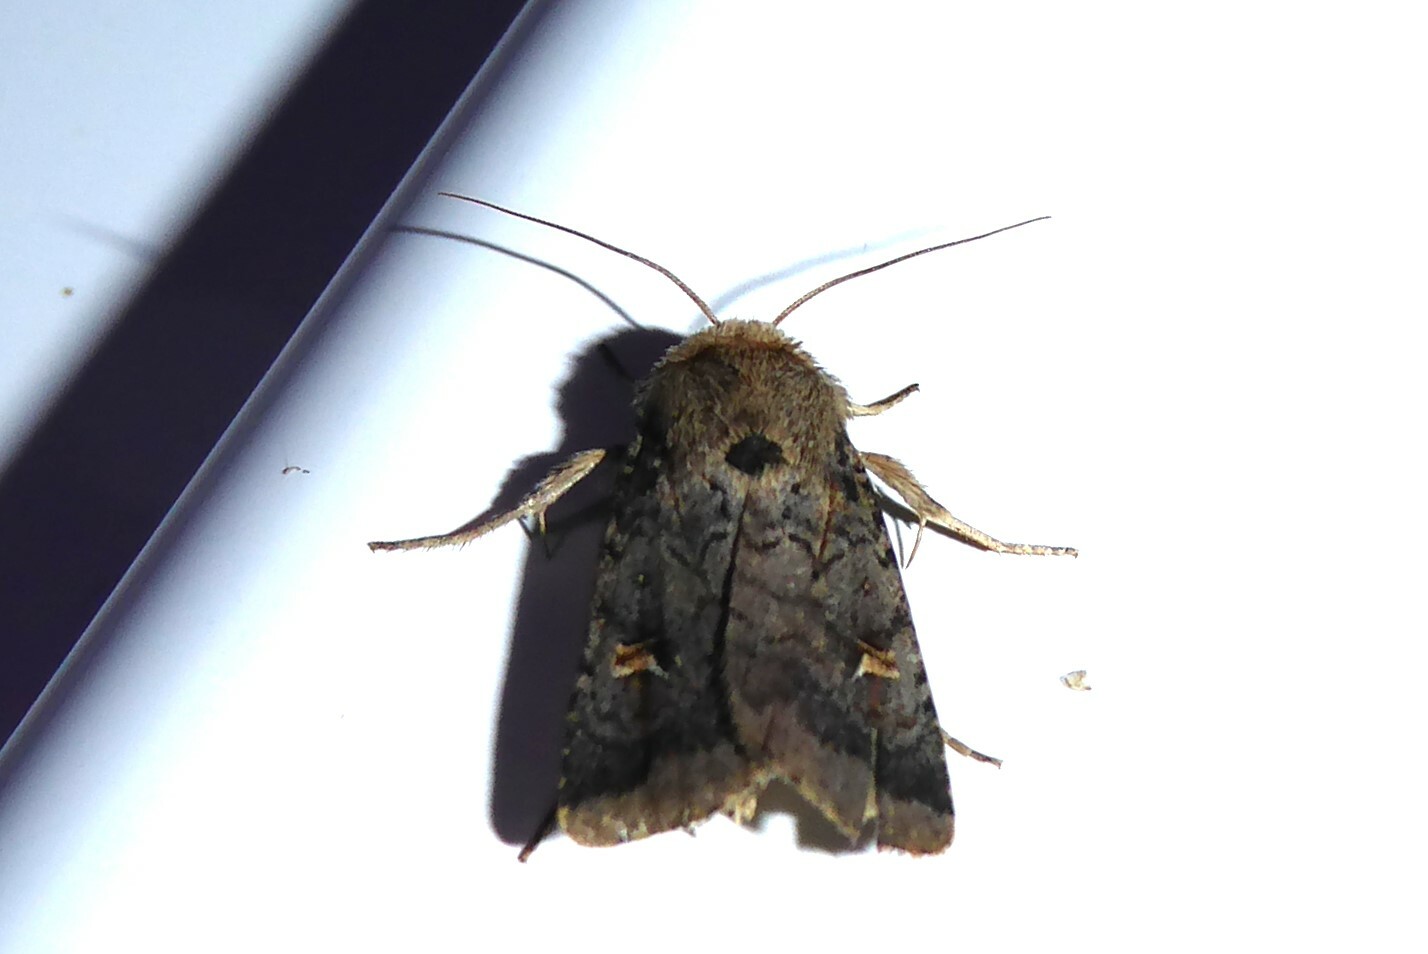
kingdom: Animalia
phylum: Arthropoda
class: Insecta
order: Lepidoptera
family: Noctuidae
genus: Proteuxoa
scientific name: Proteuxoa tetronycha
